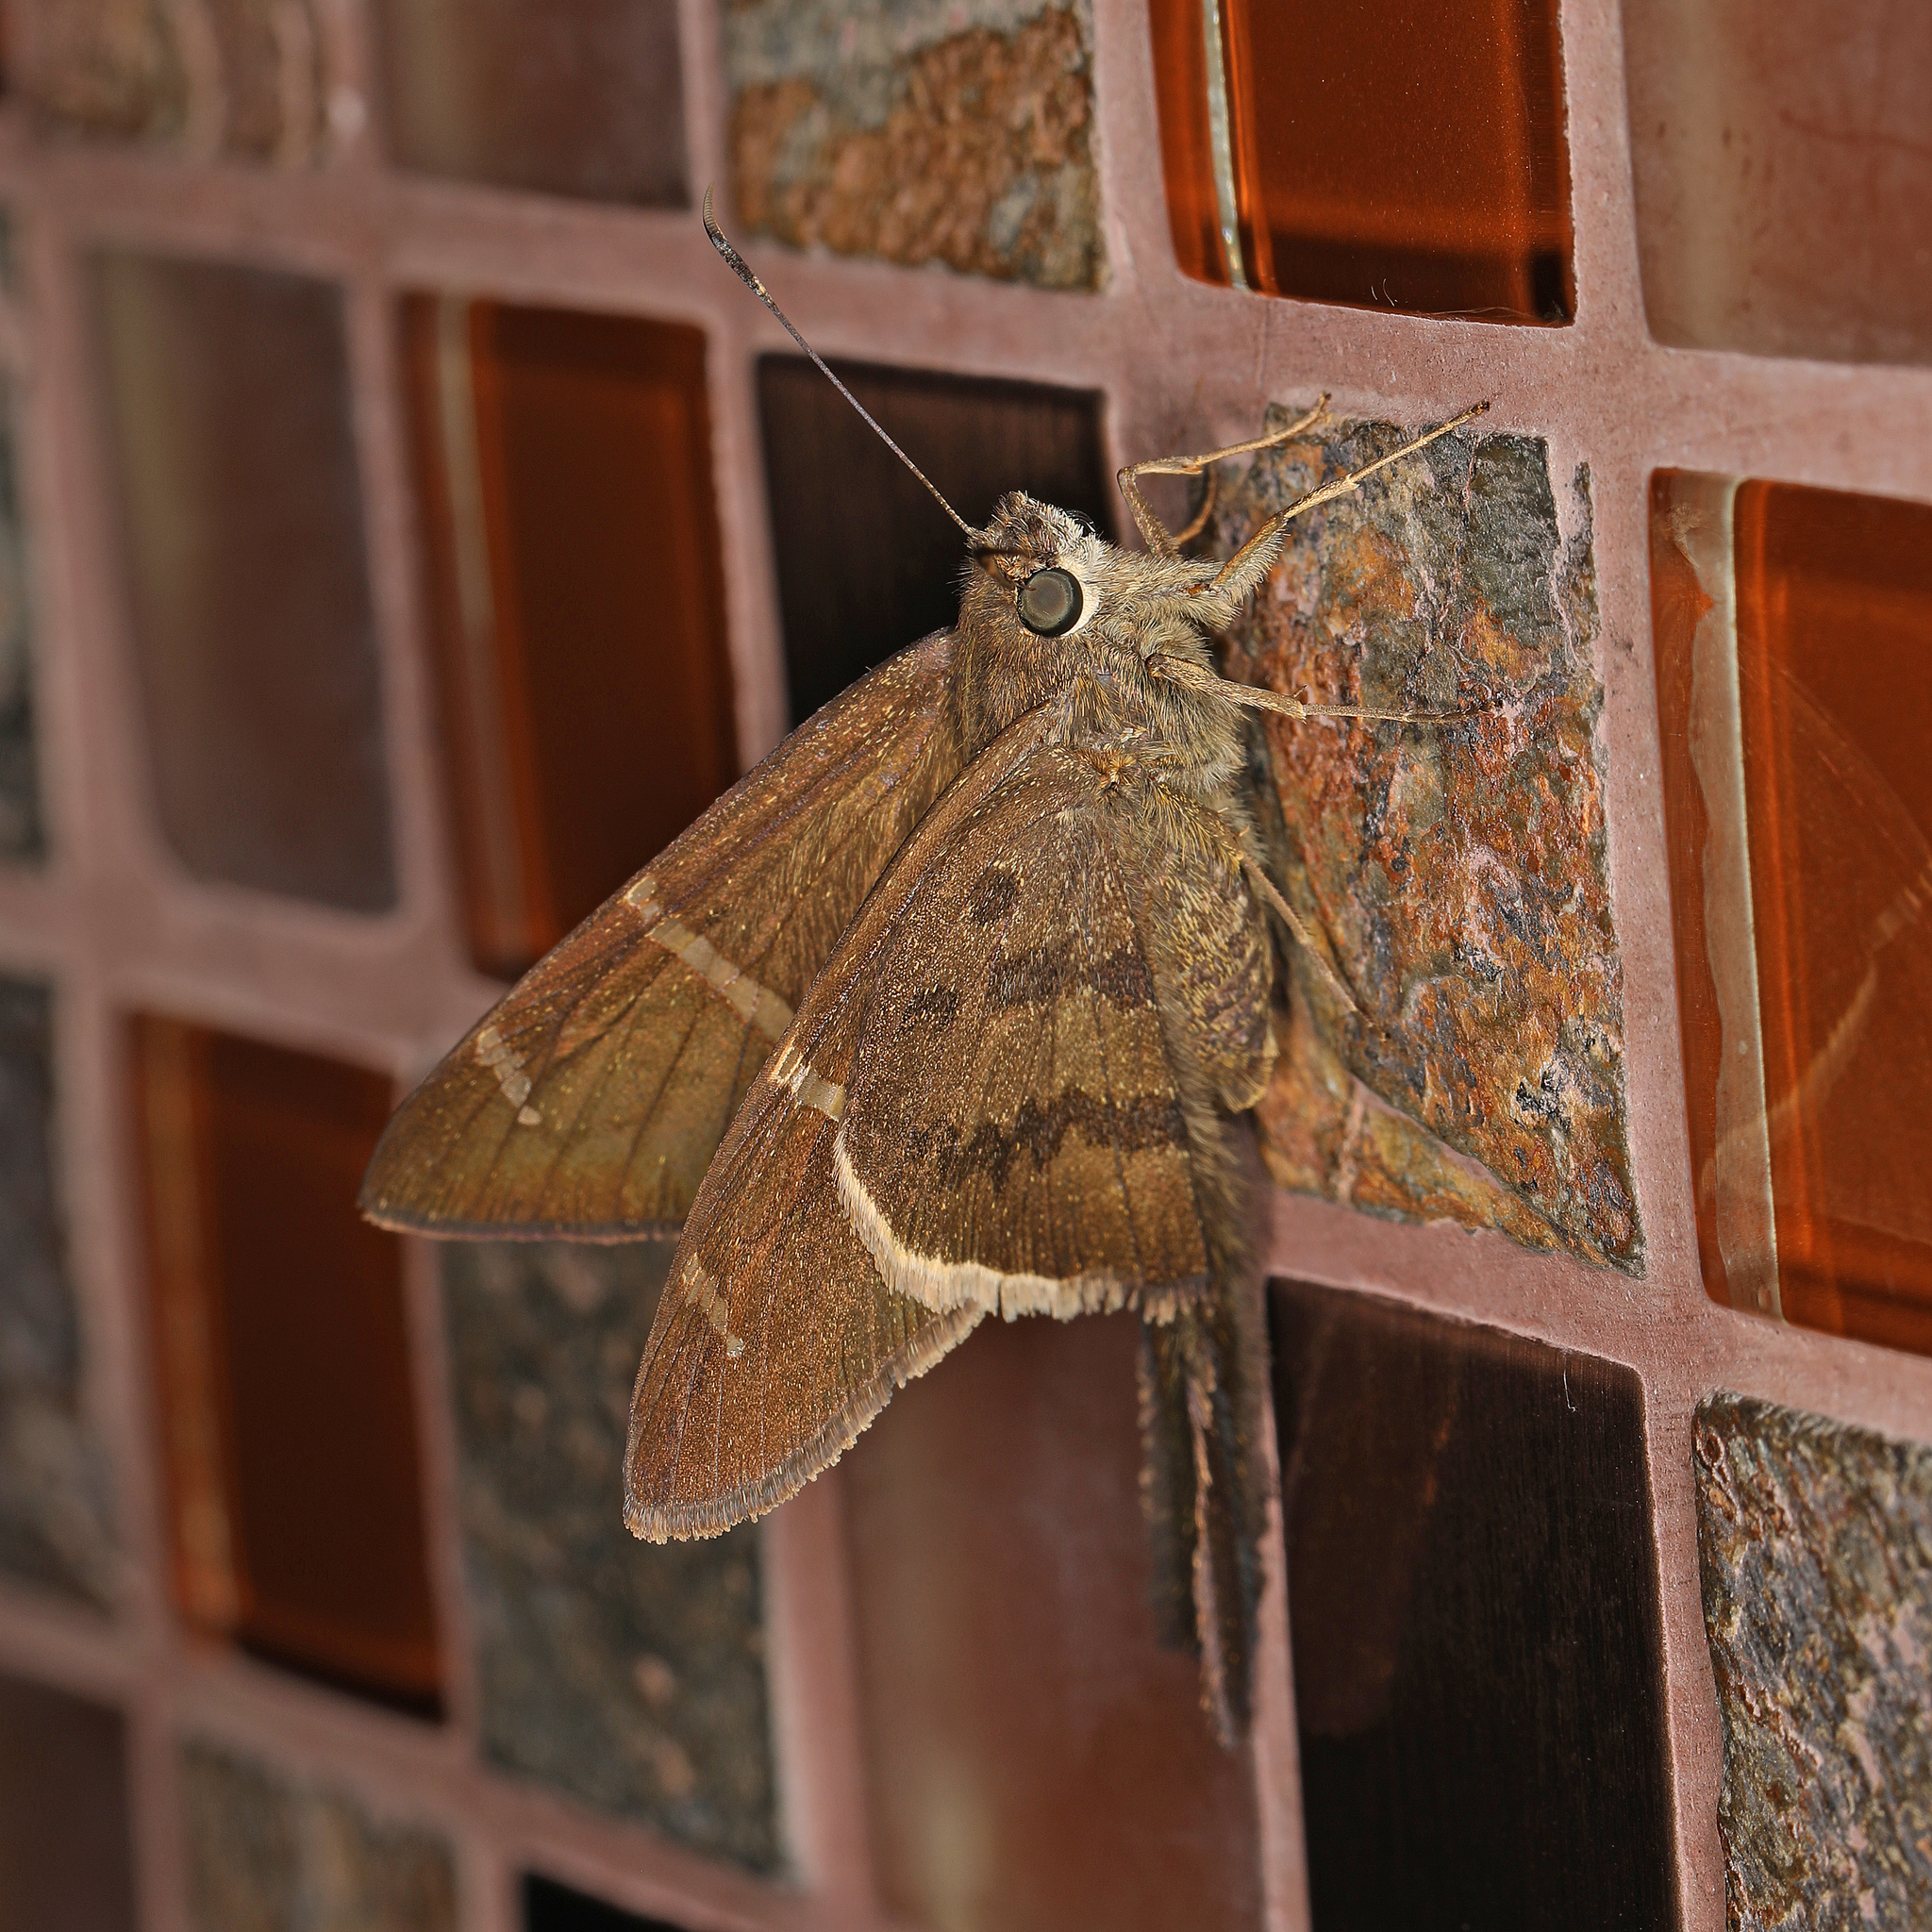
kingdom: Animalia
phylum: Arthropoda
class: Insecta
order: Lepidoptera
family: Hesperiidae
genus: Urbanus
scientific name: Urbanus tanna
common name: Tanna longtail
